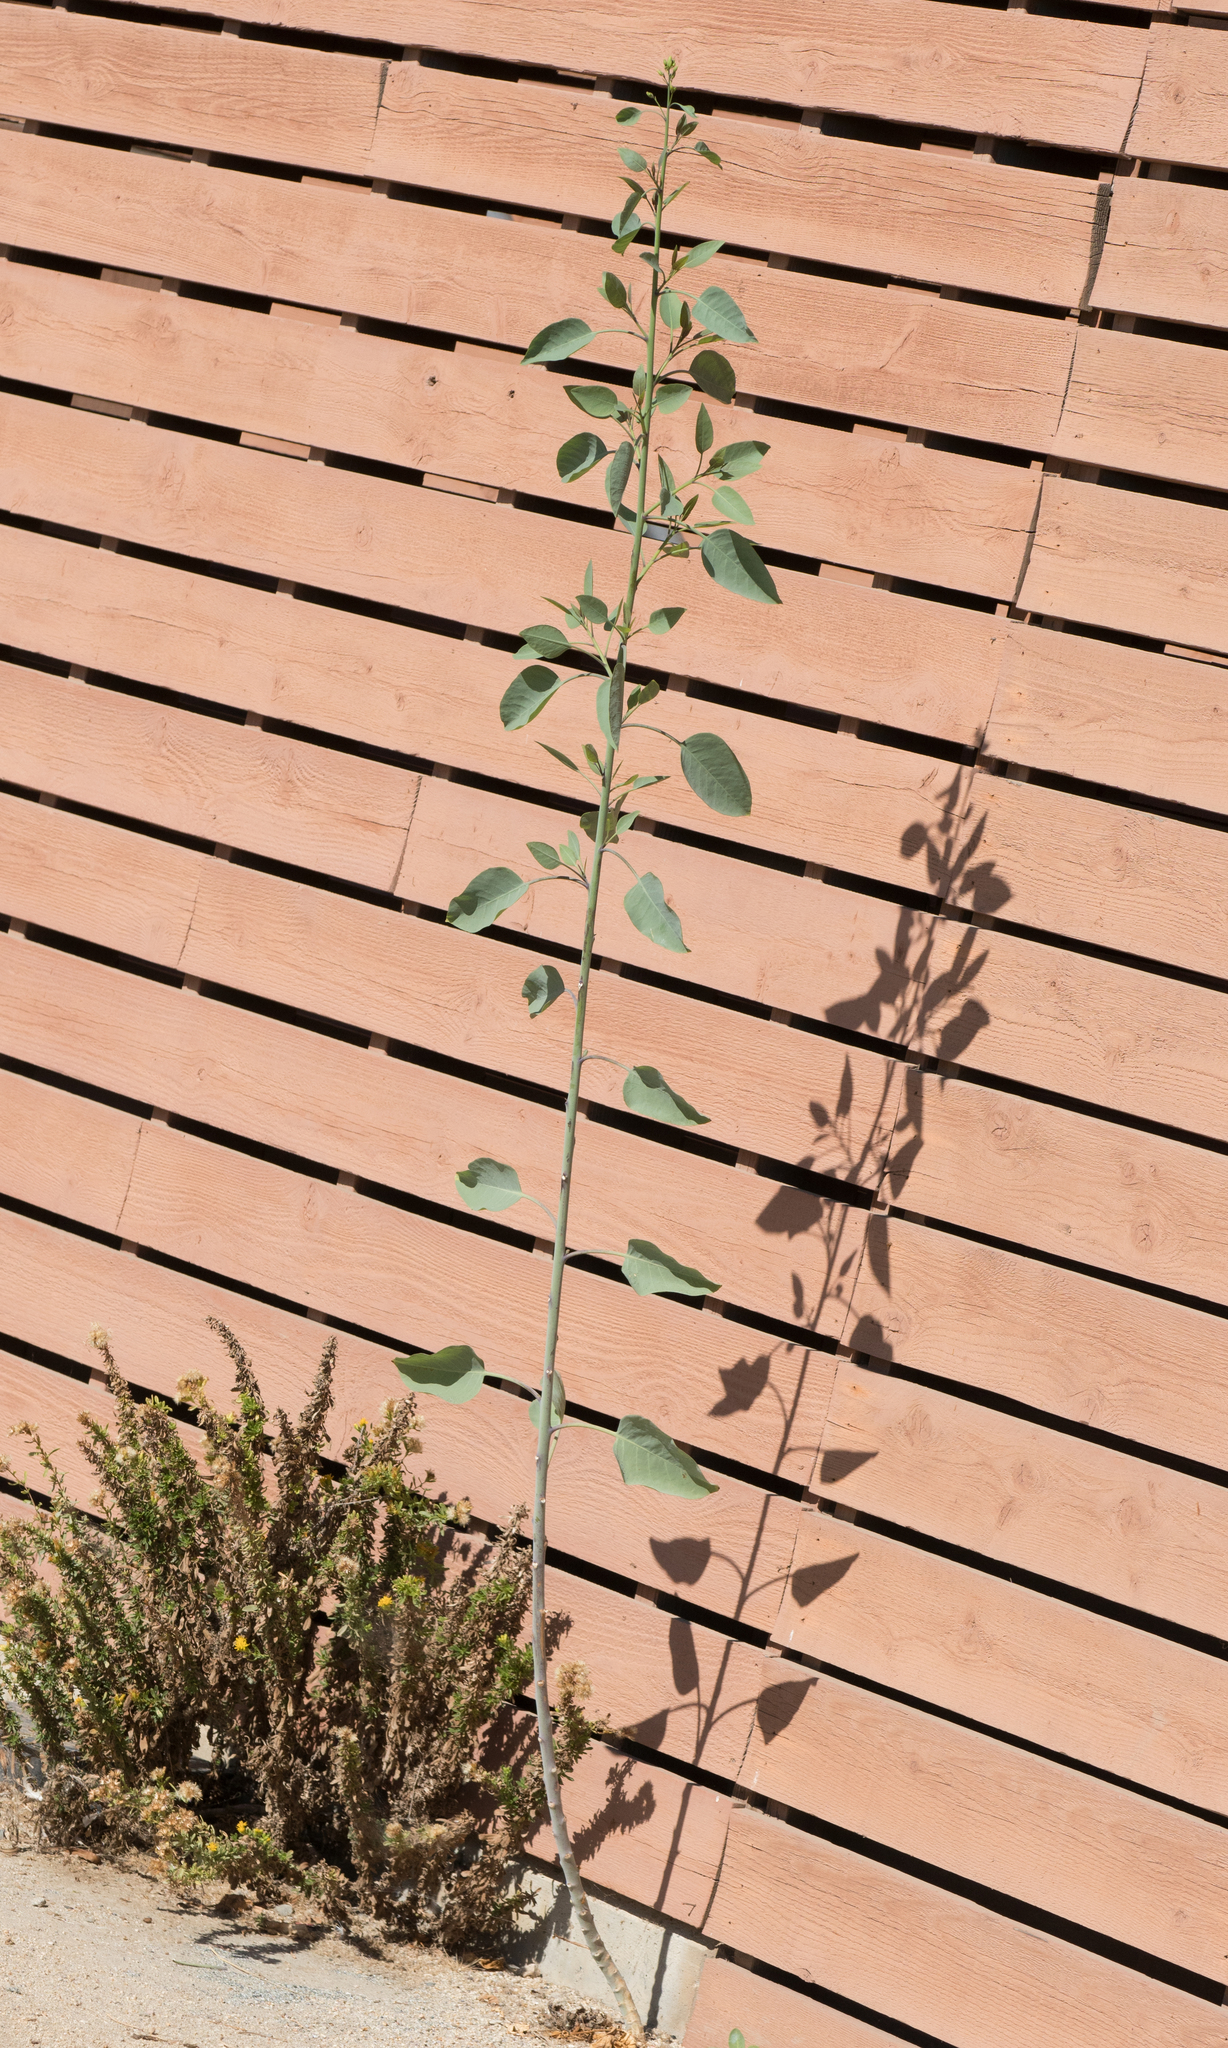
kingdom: Plantae
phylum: Tracheophyta
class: Magnoliopsida
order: Solanales
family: Solanaceae
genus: Nicotiana
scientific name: Nicotiana glauca
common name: Tree tobacco
